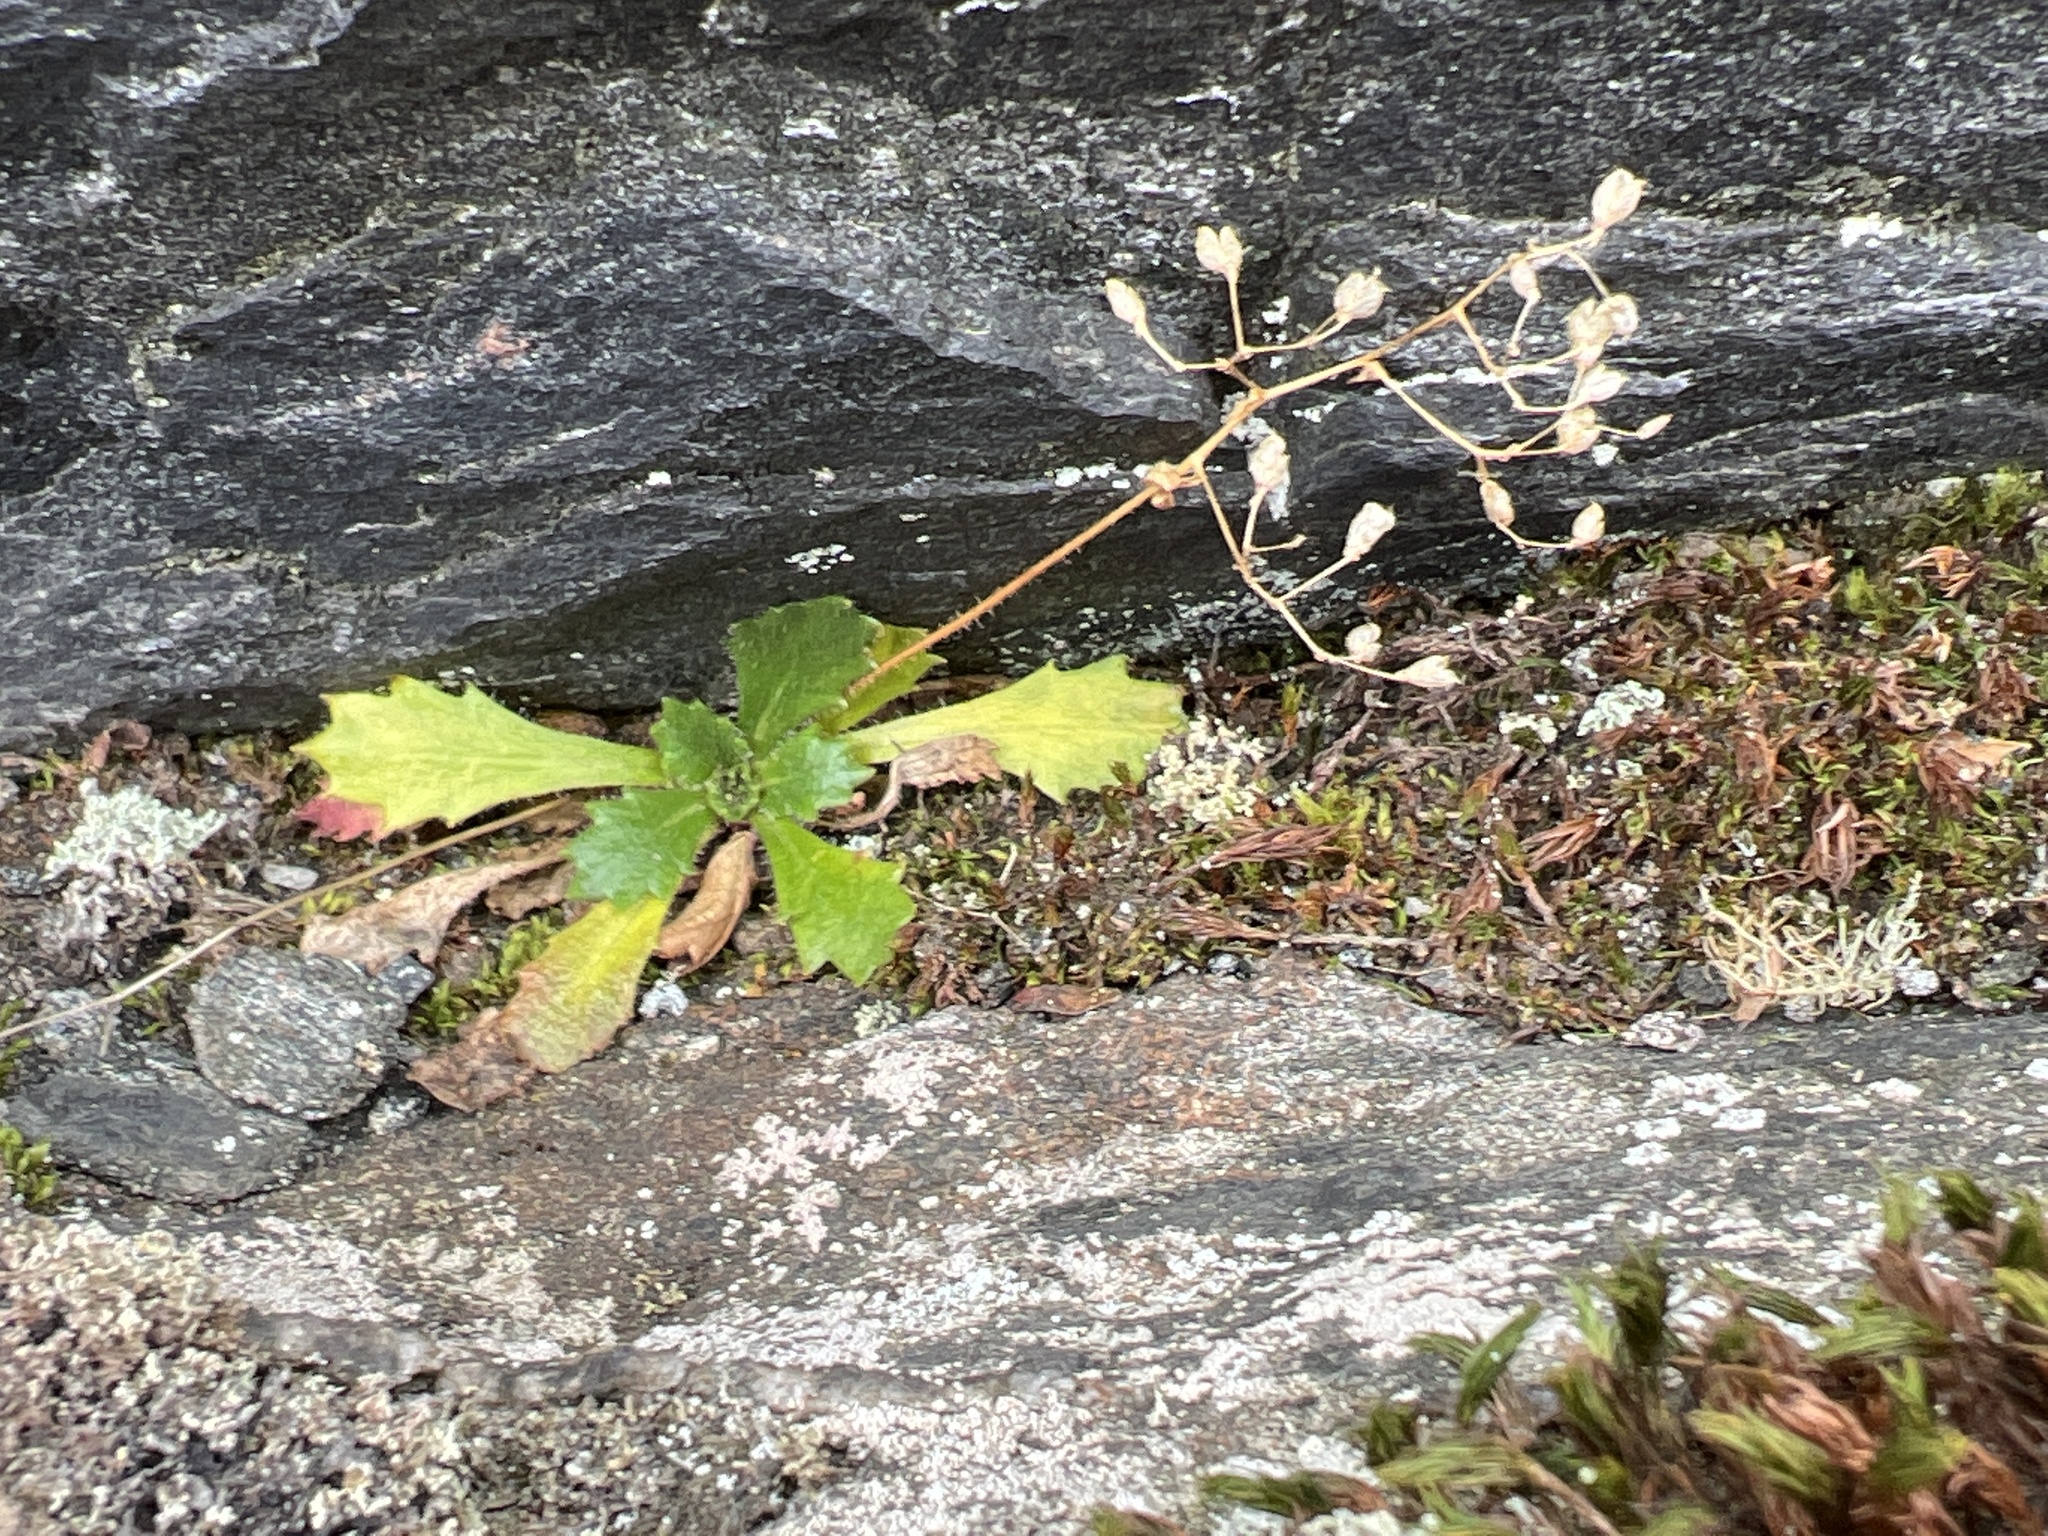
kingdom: Plantae
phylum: Tracheophyta
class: Magnoliopsida
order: Saxifragales
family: Saxifragaceae
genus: Micranthes
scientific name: Micranthes petiolaris
